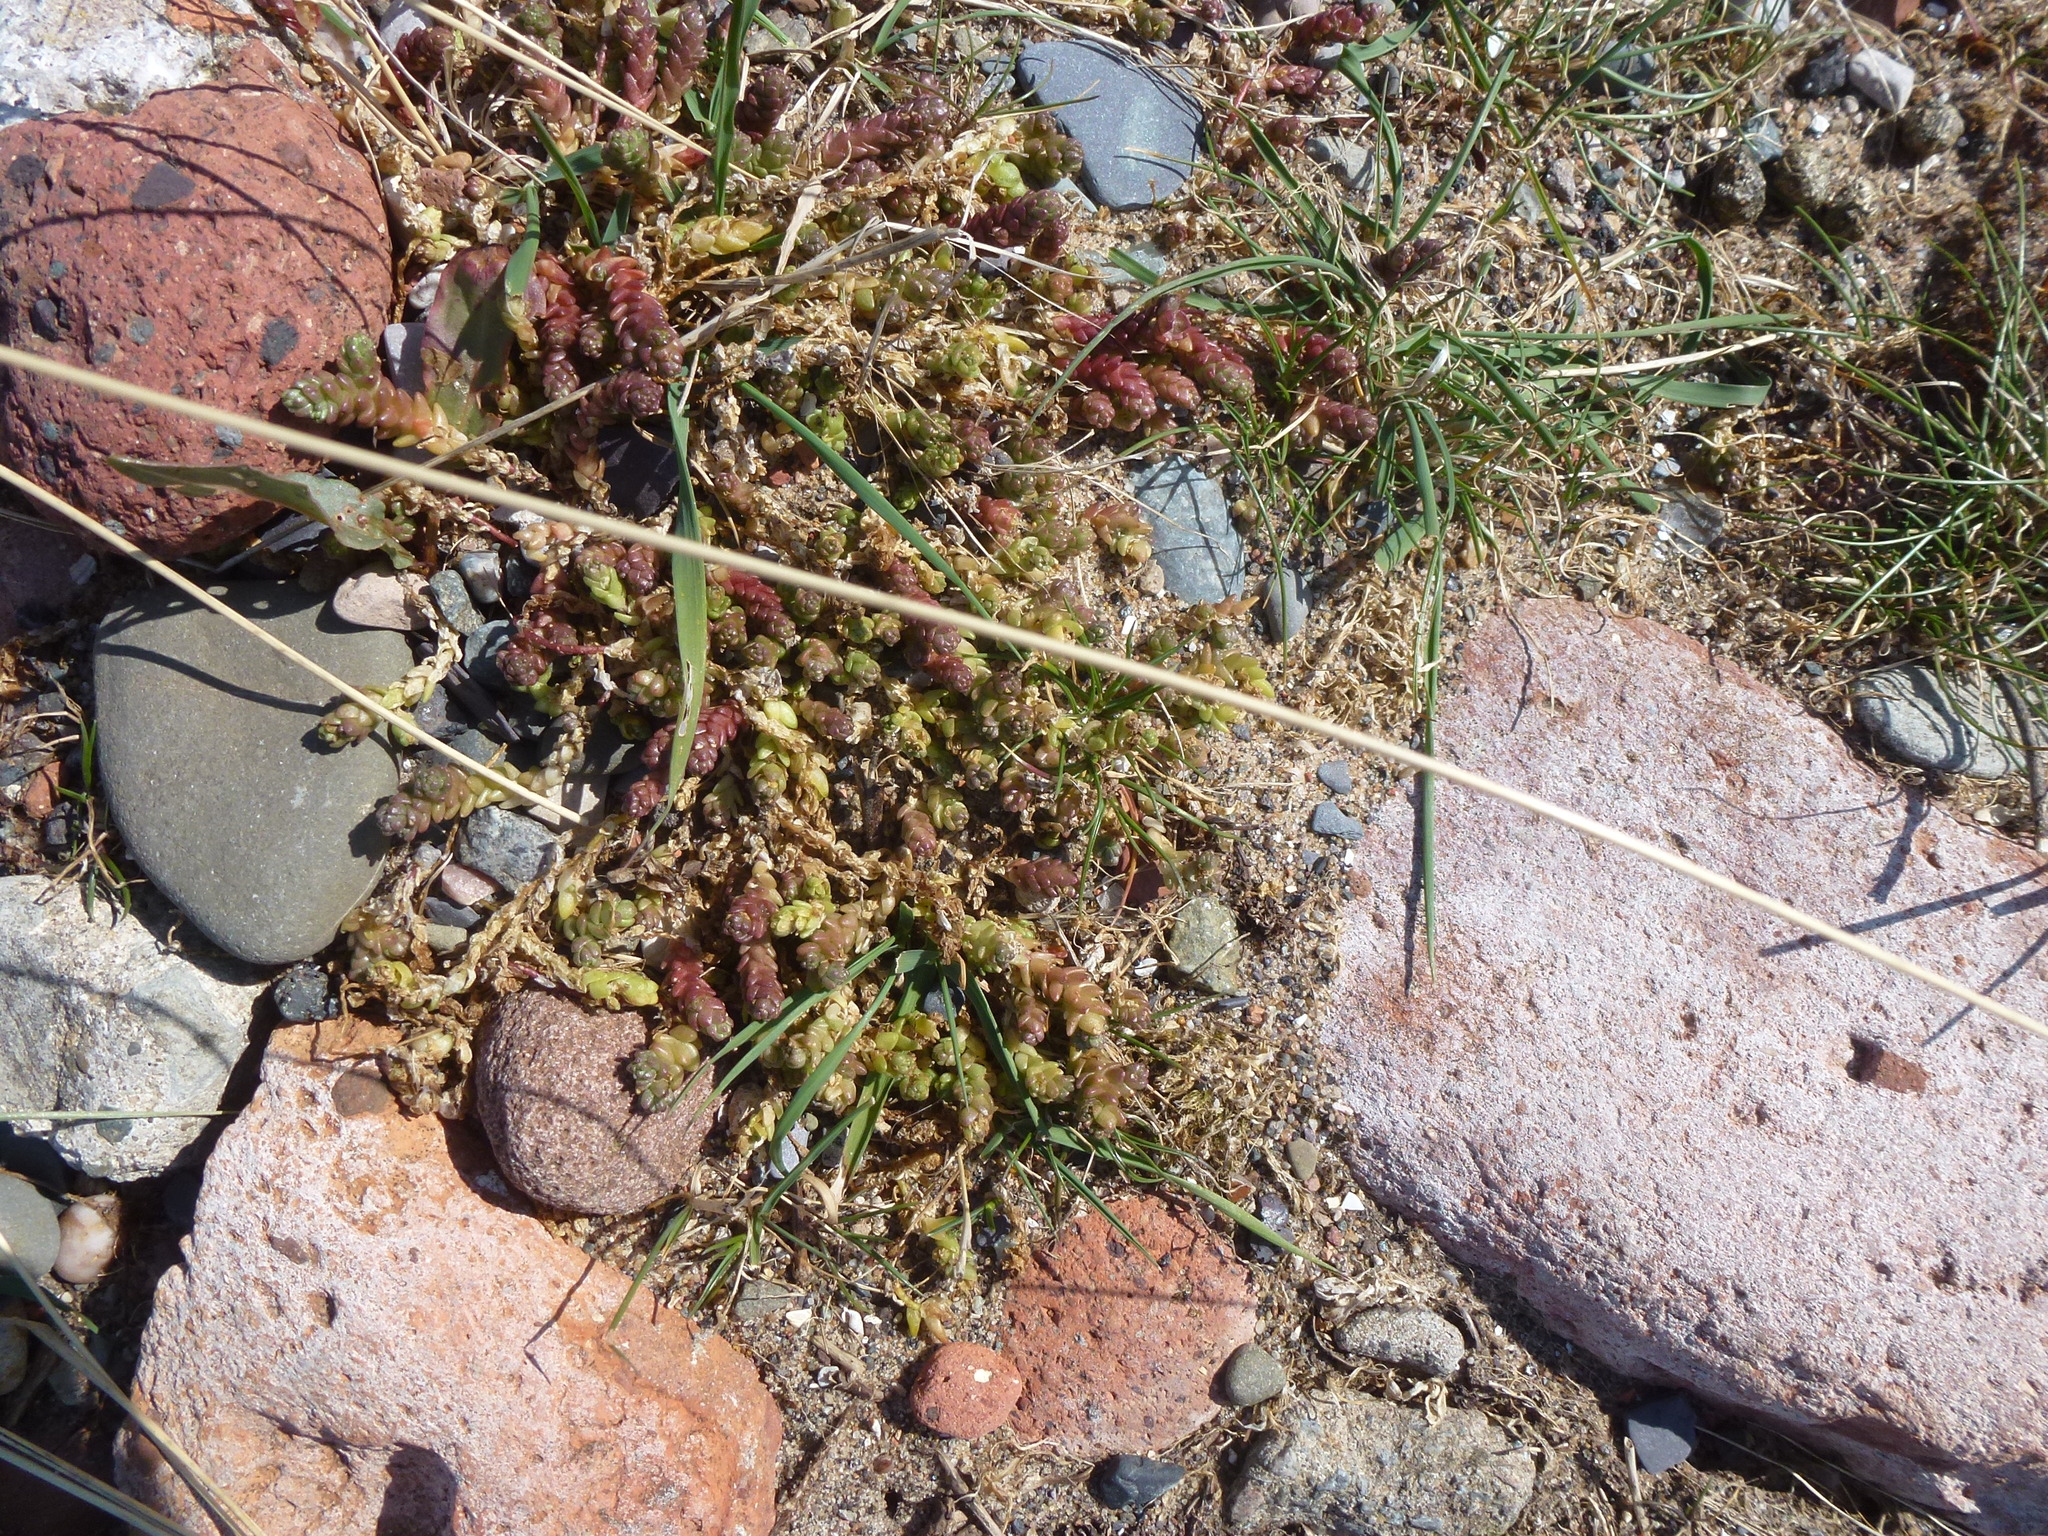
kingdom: Plantae
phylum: Tracheophyta
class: Magnoliopsida
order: Saxifragales
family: Crassulaceae
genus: Sedum
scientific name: Sedum acre
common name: Biting stonecrop
